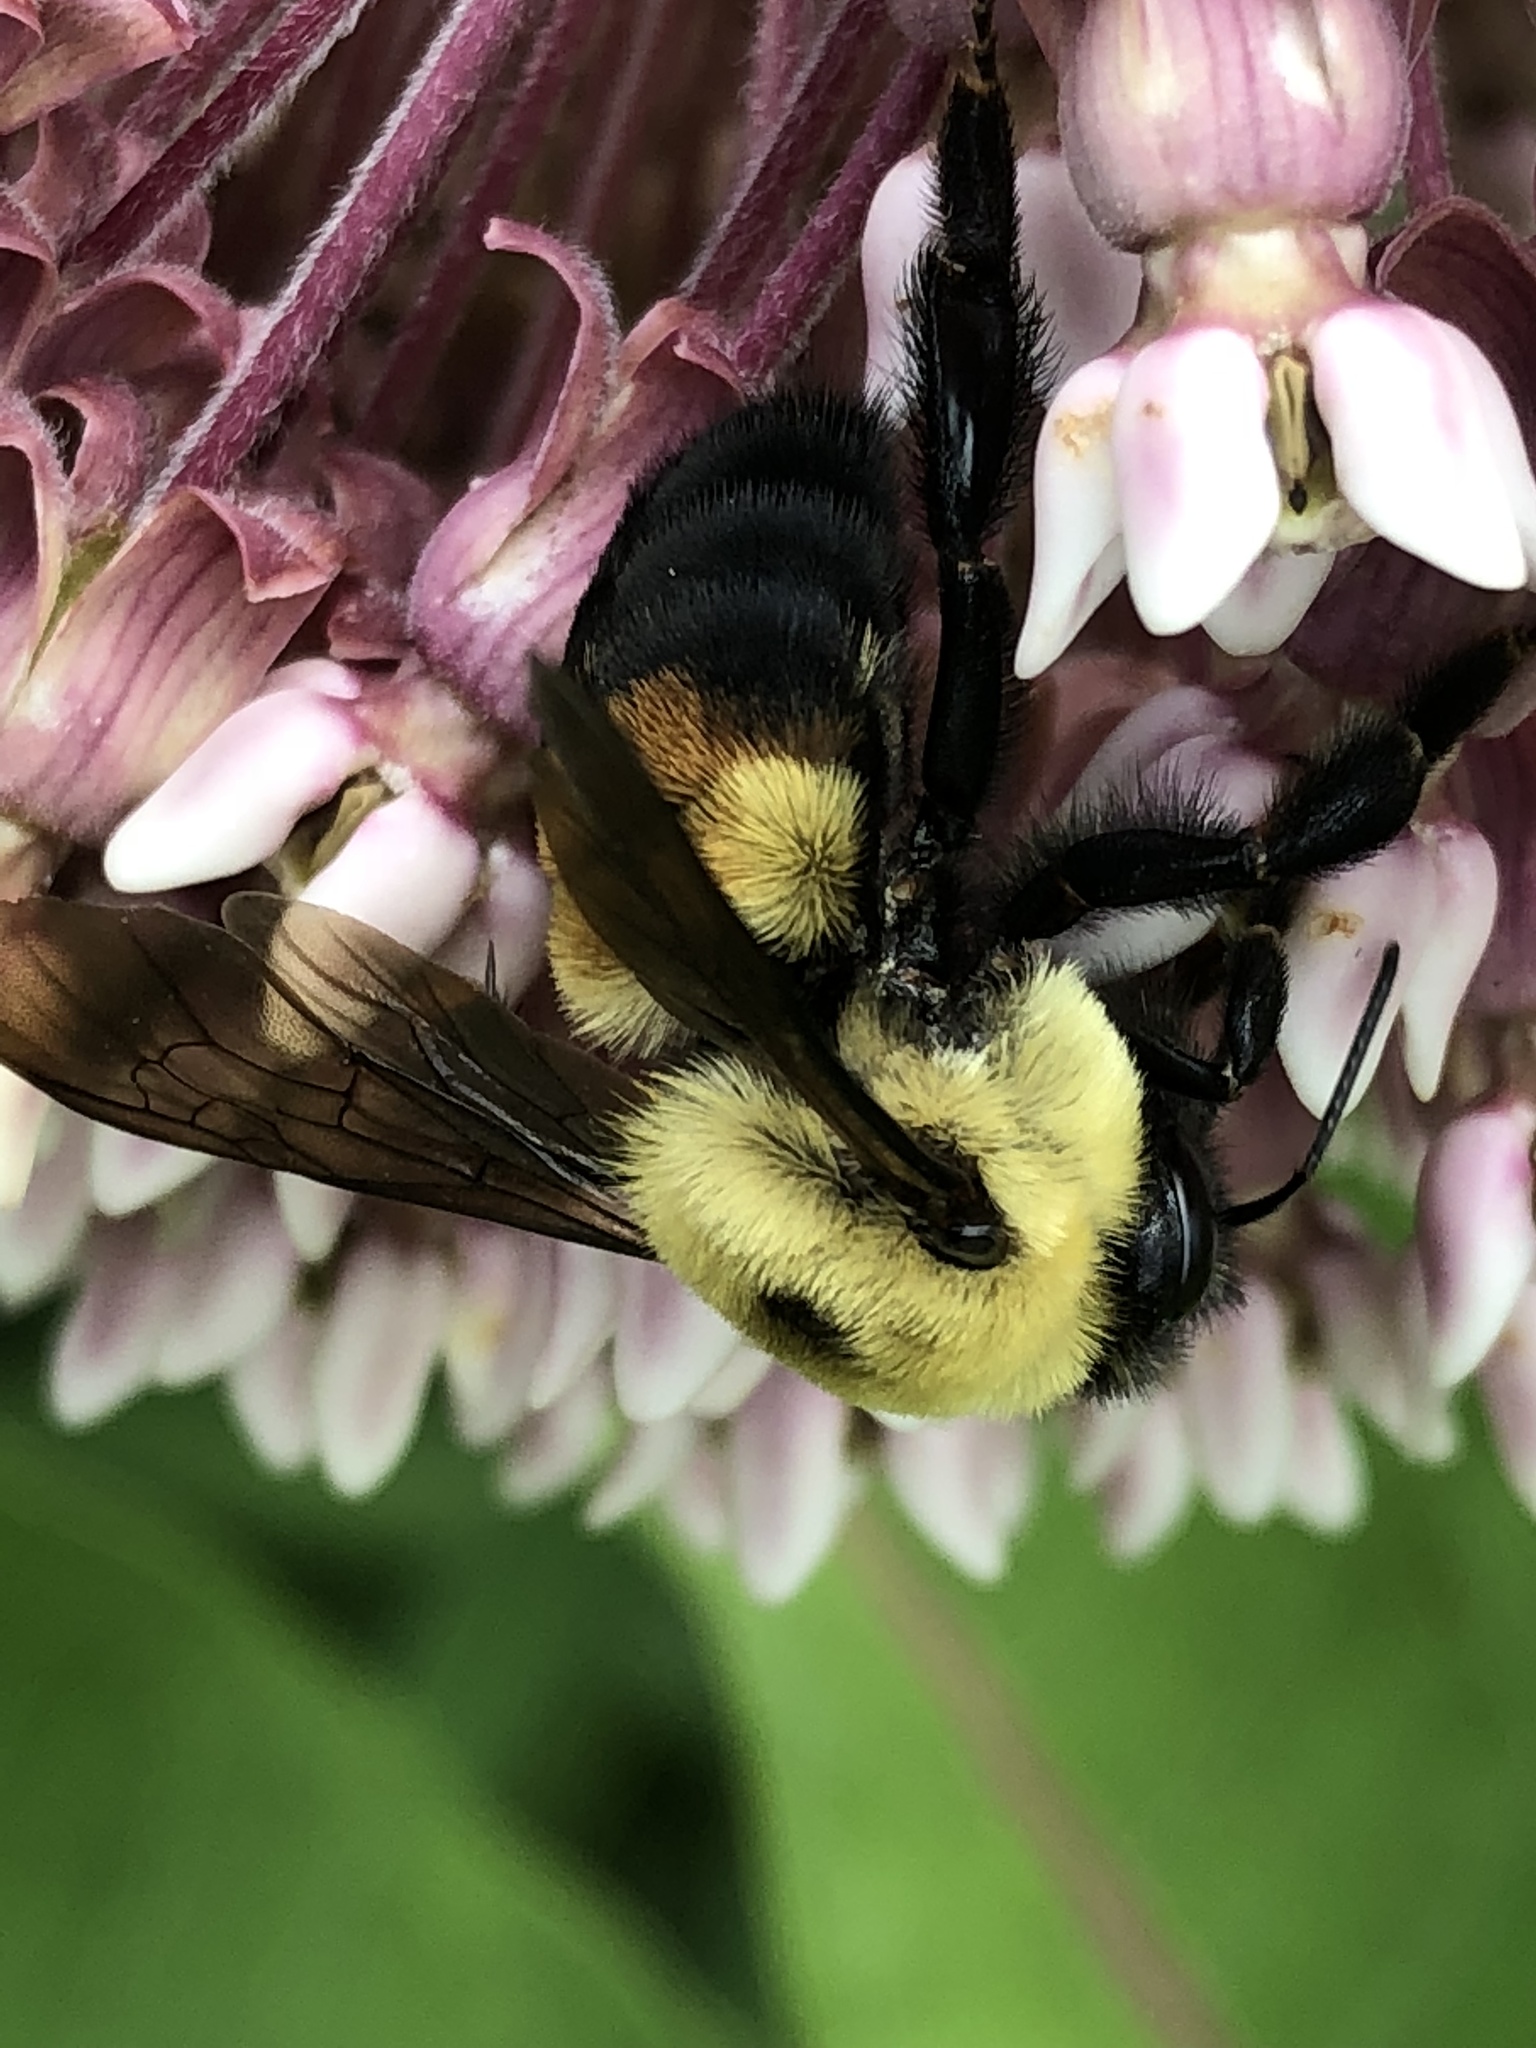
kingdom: Animalia
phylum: Arthropoda
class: Insecta
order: Hymenoptera
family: Apidae
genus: Bombus
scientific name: Bombus griseocollis
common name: Brown-belted bumble bee
